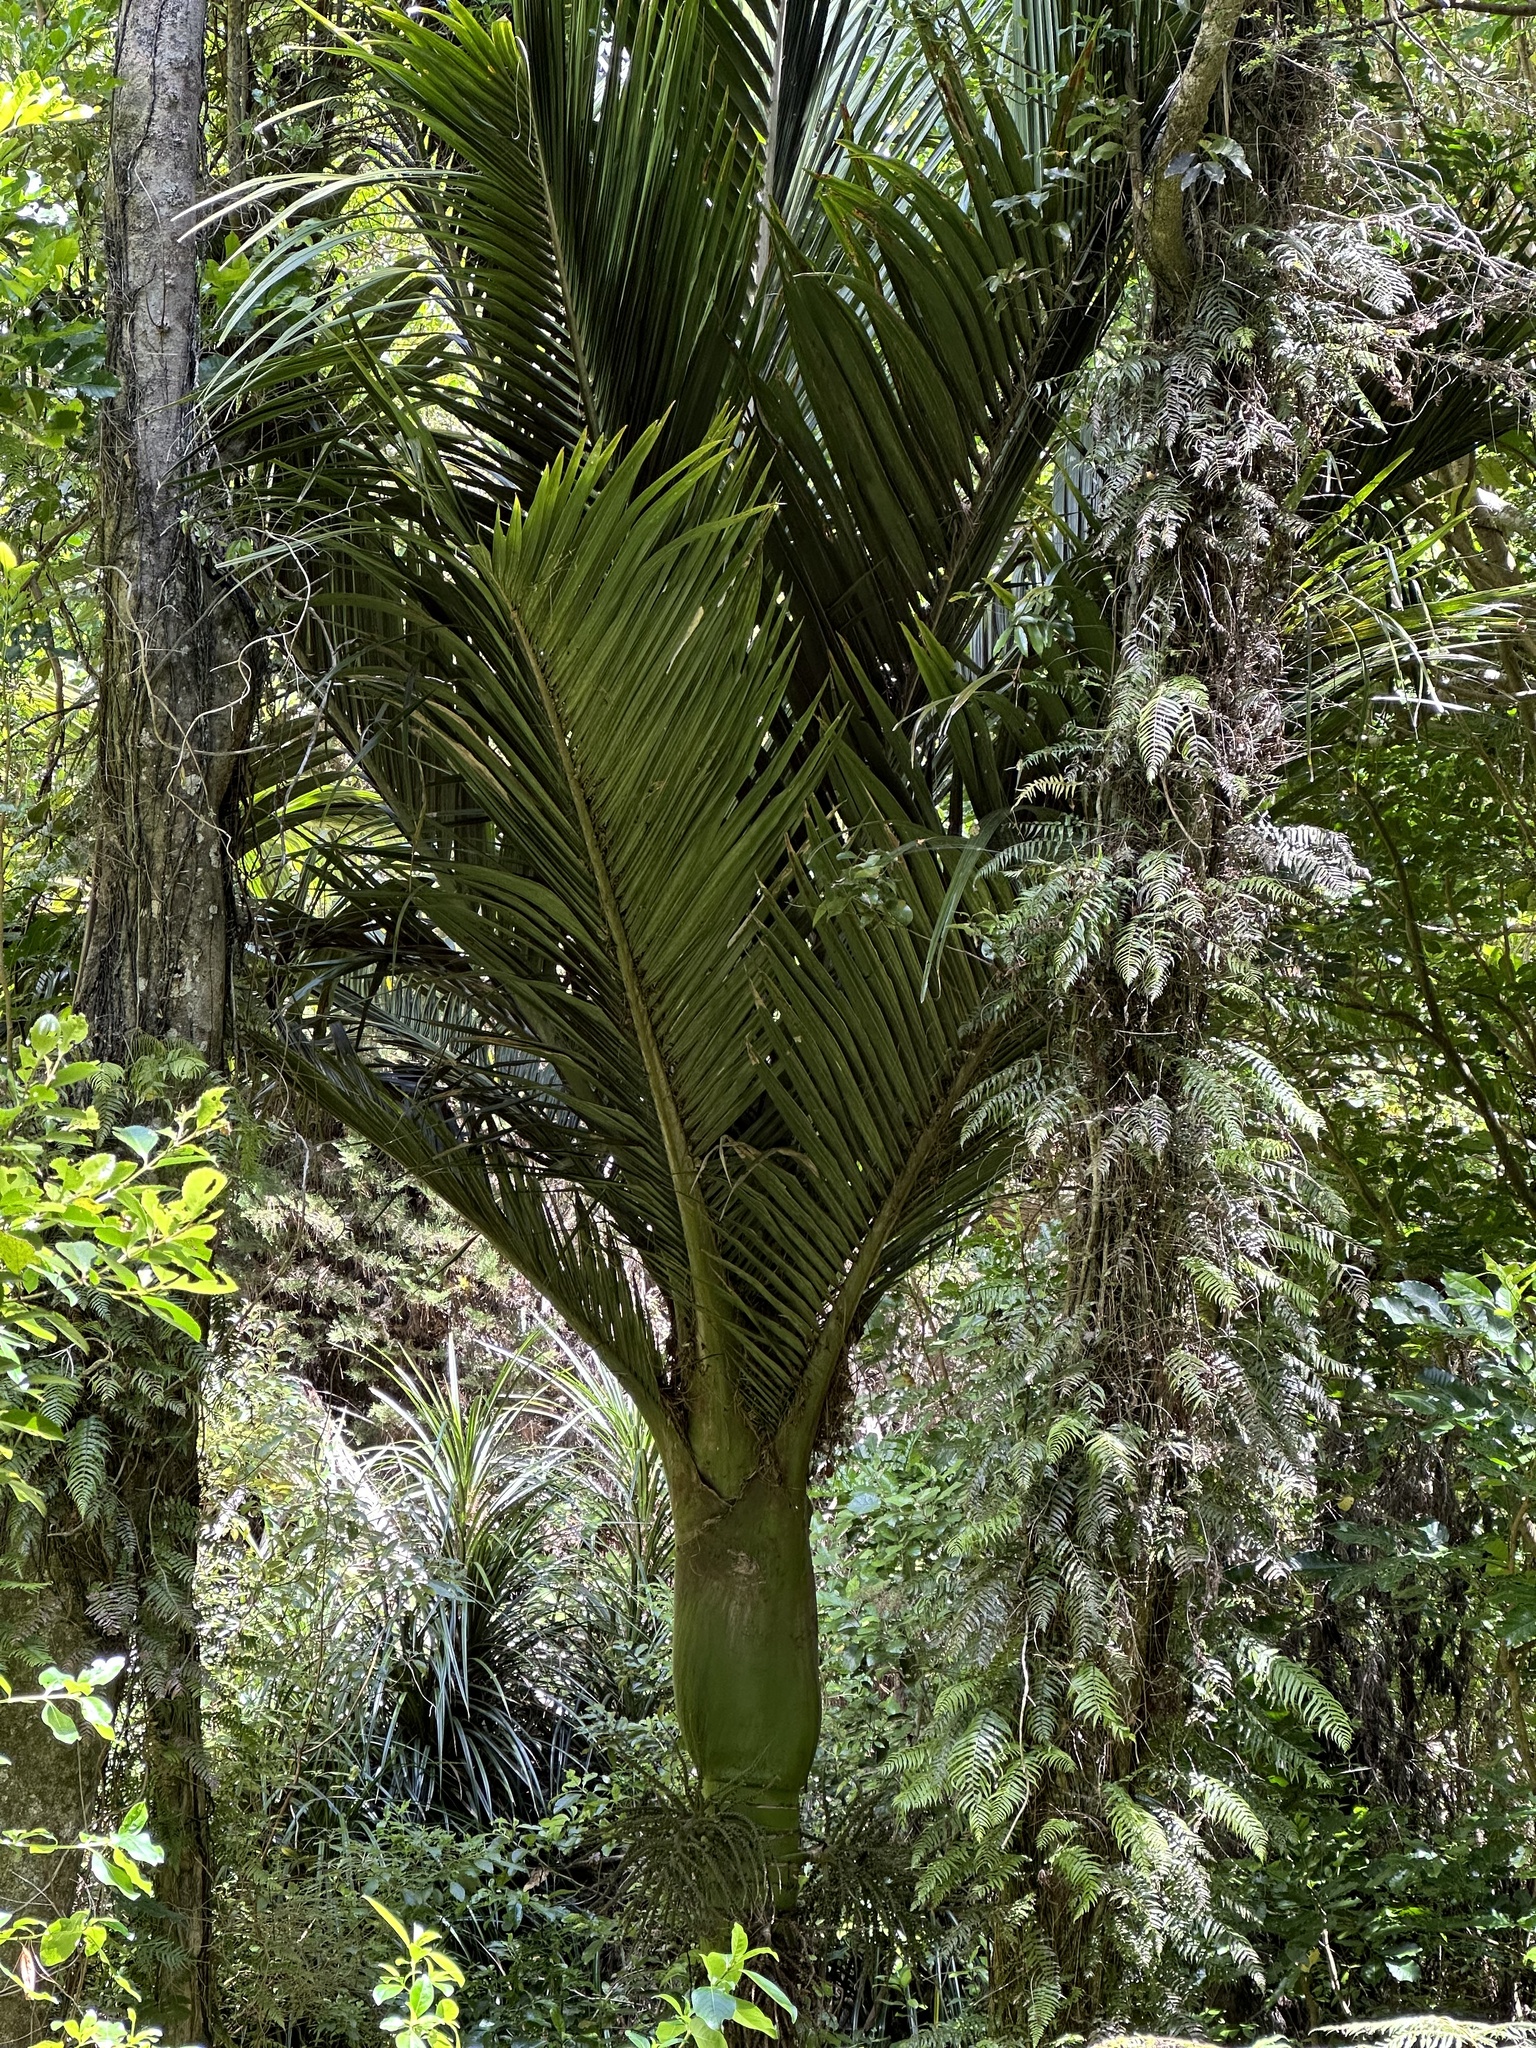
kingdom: Plantae
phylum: Tracheophyta
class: Liliopsida
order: Arecales
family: Arecaceae
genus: Rhopalostylis
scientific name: Rhopalostylis sapida
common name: Feather-duster palm
